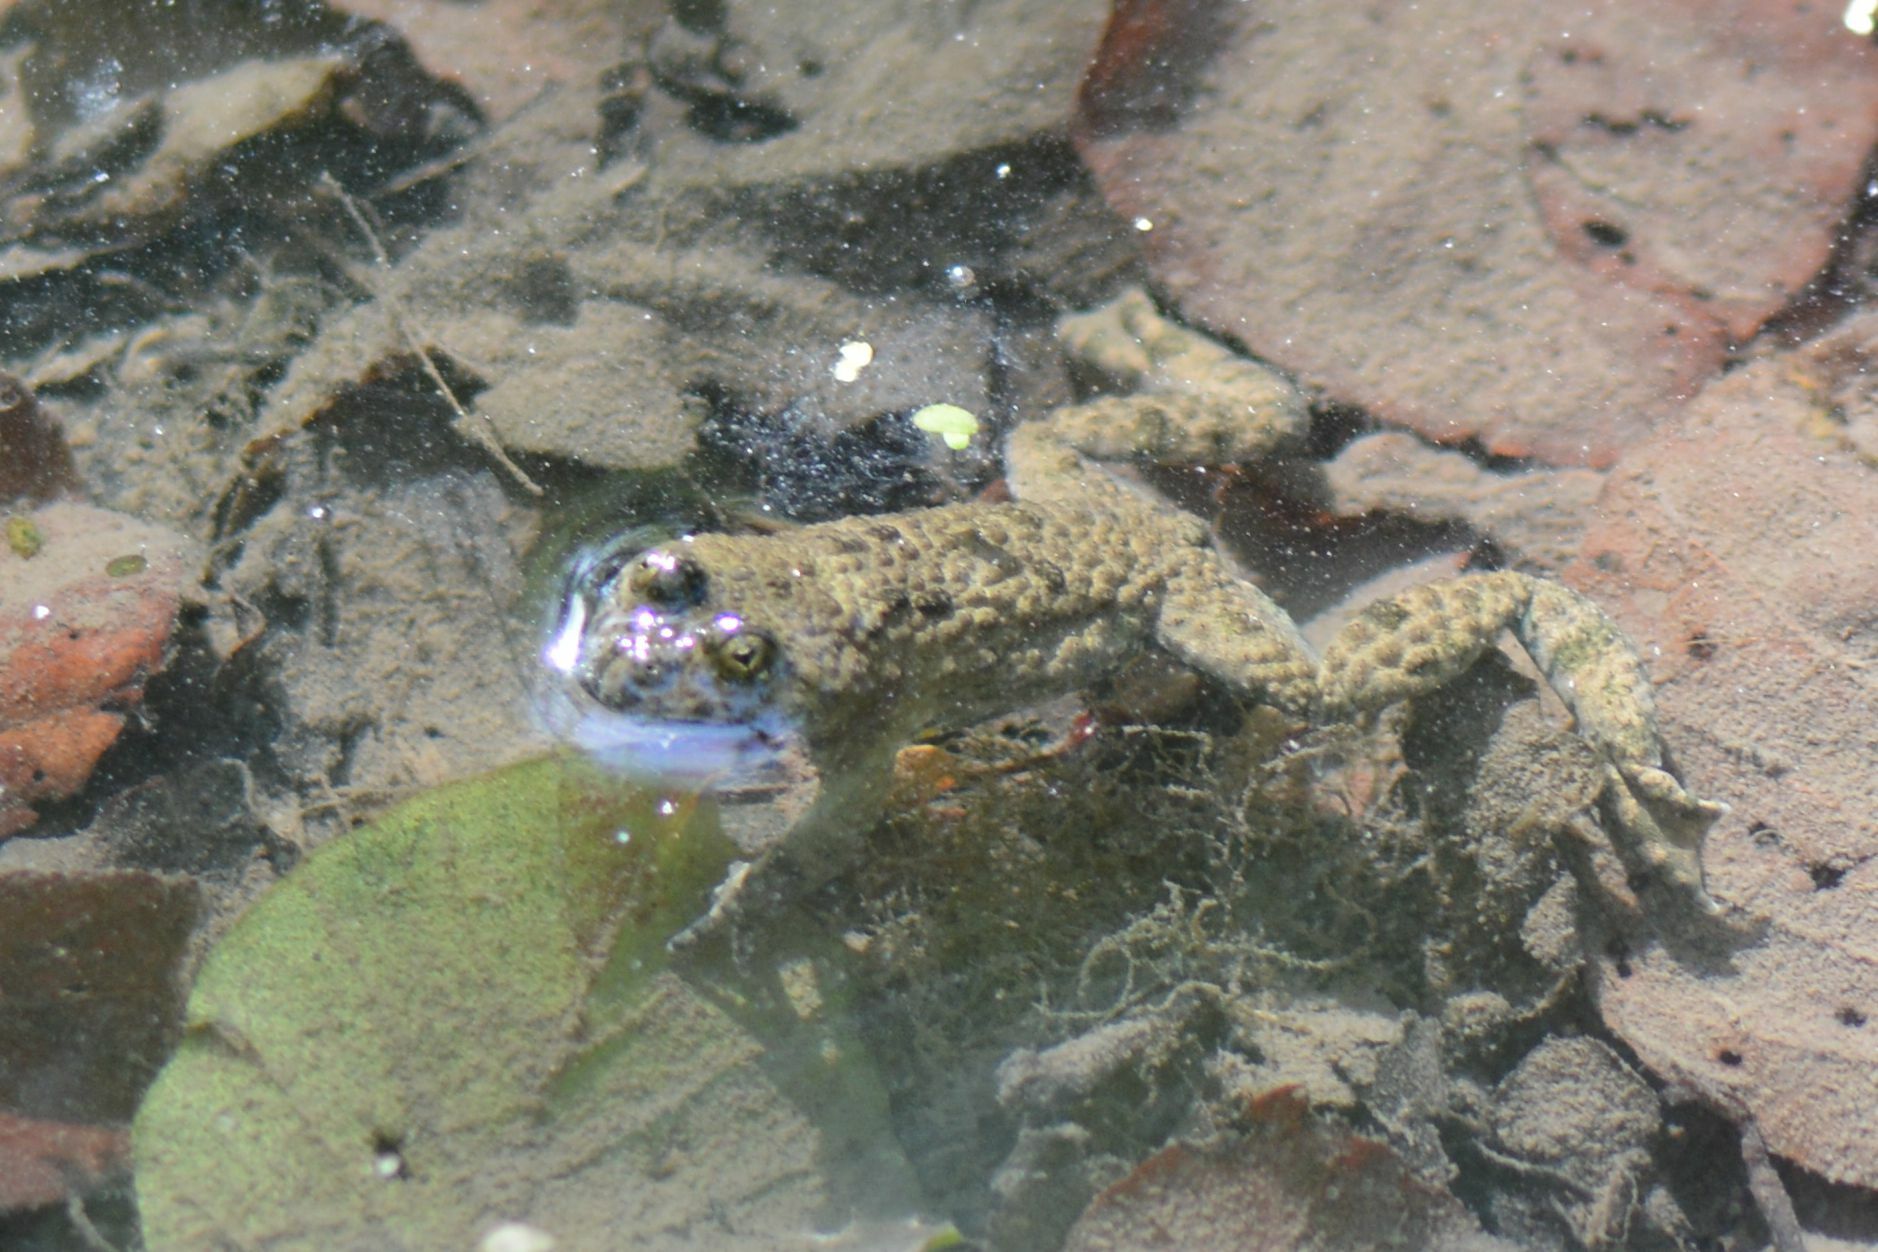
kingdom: Animalia
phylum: Chordata
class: Amphibia
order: Anura
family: Bombinatoridae
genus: Bombina
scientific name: Bombina variegata
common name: Yellow-bellied toad
